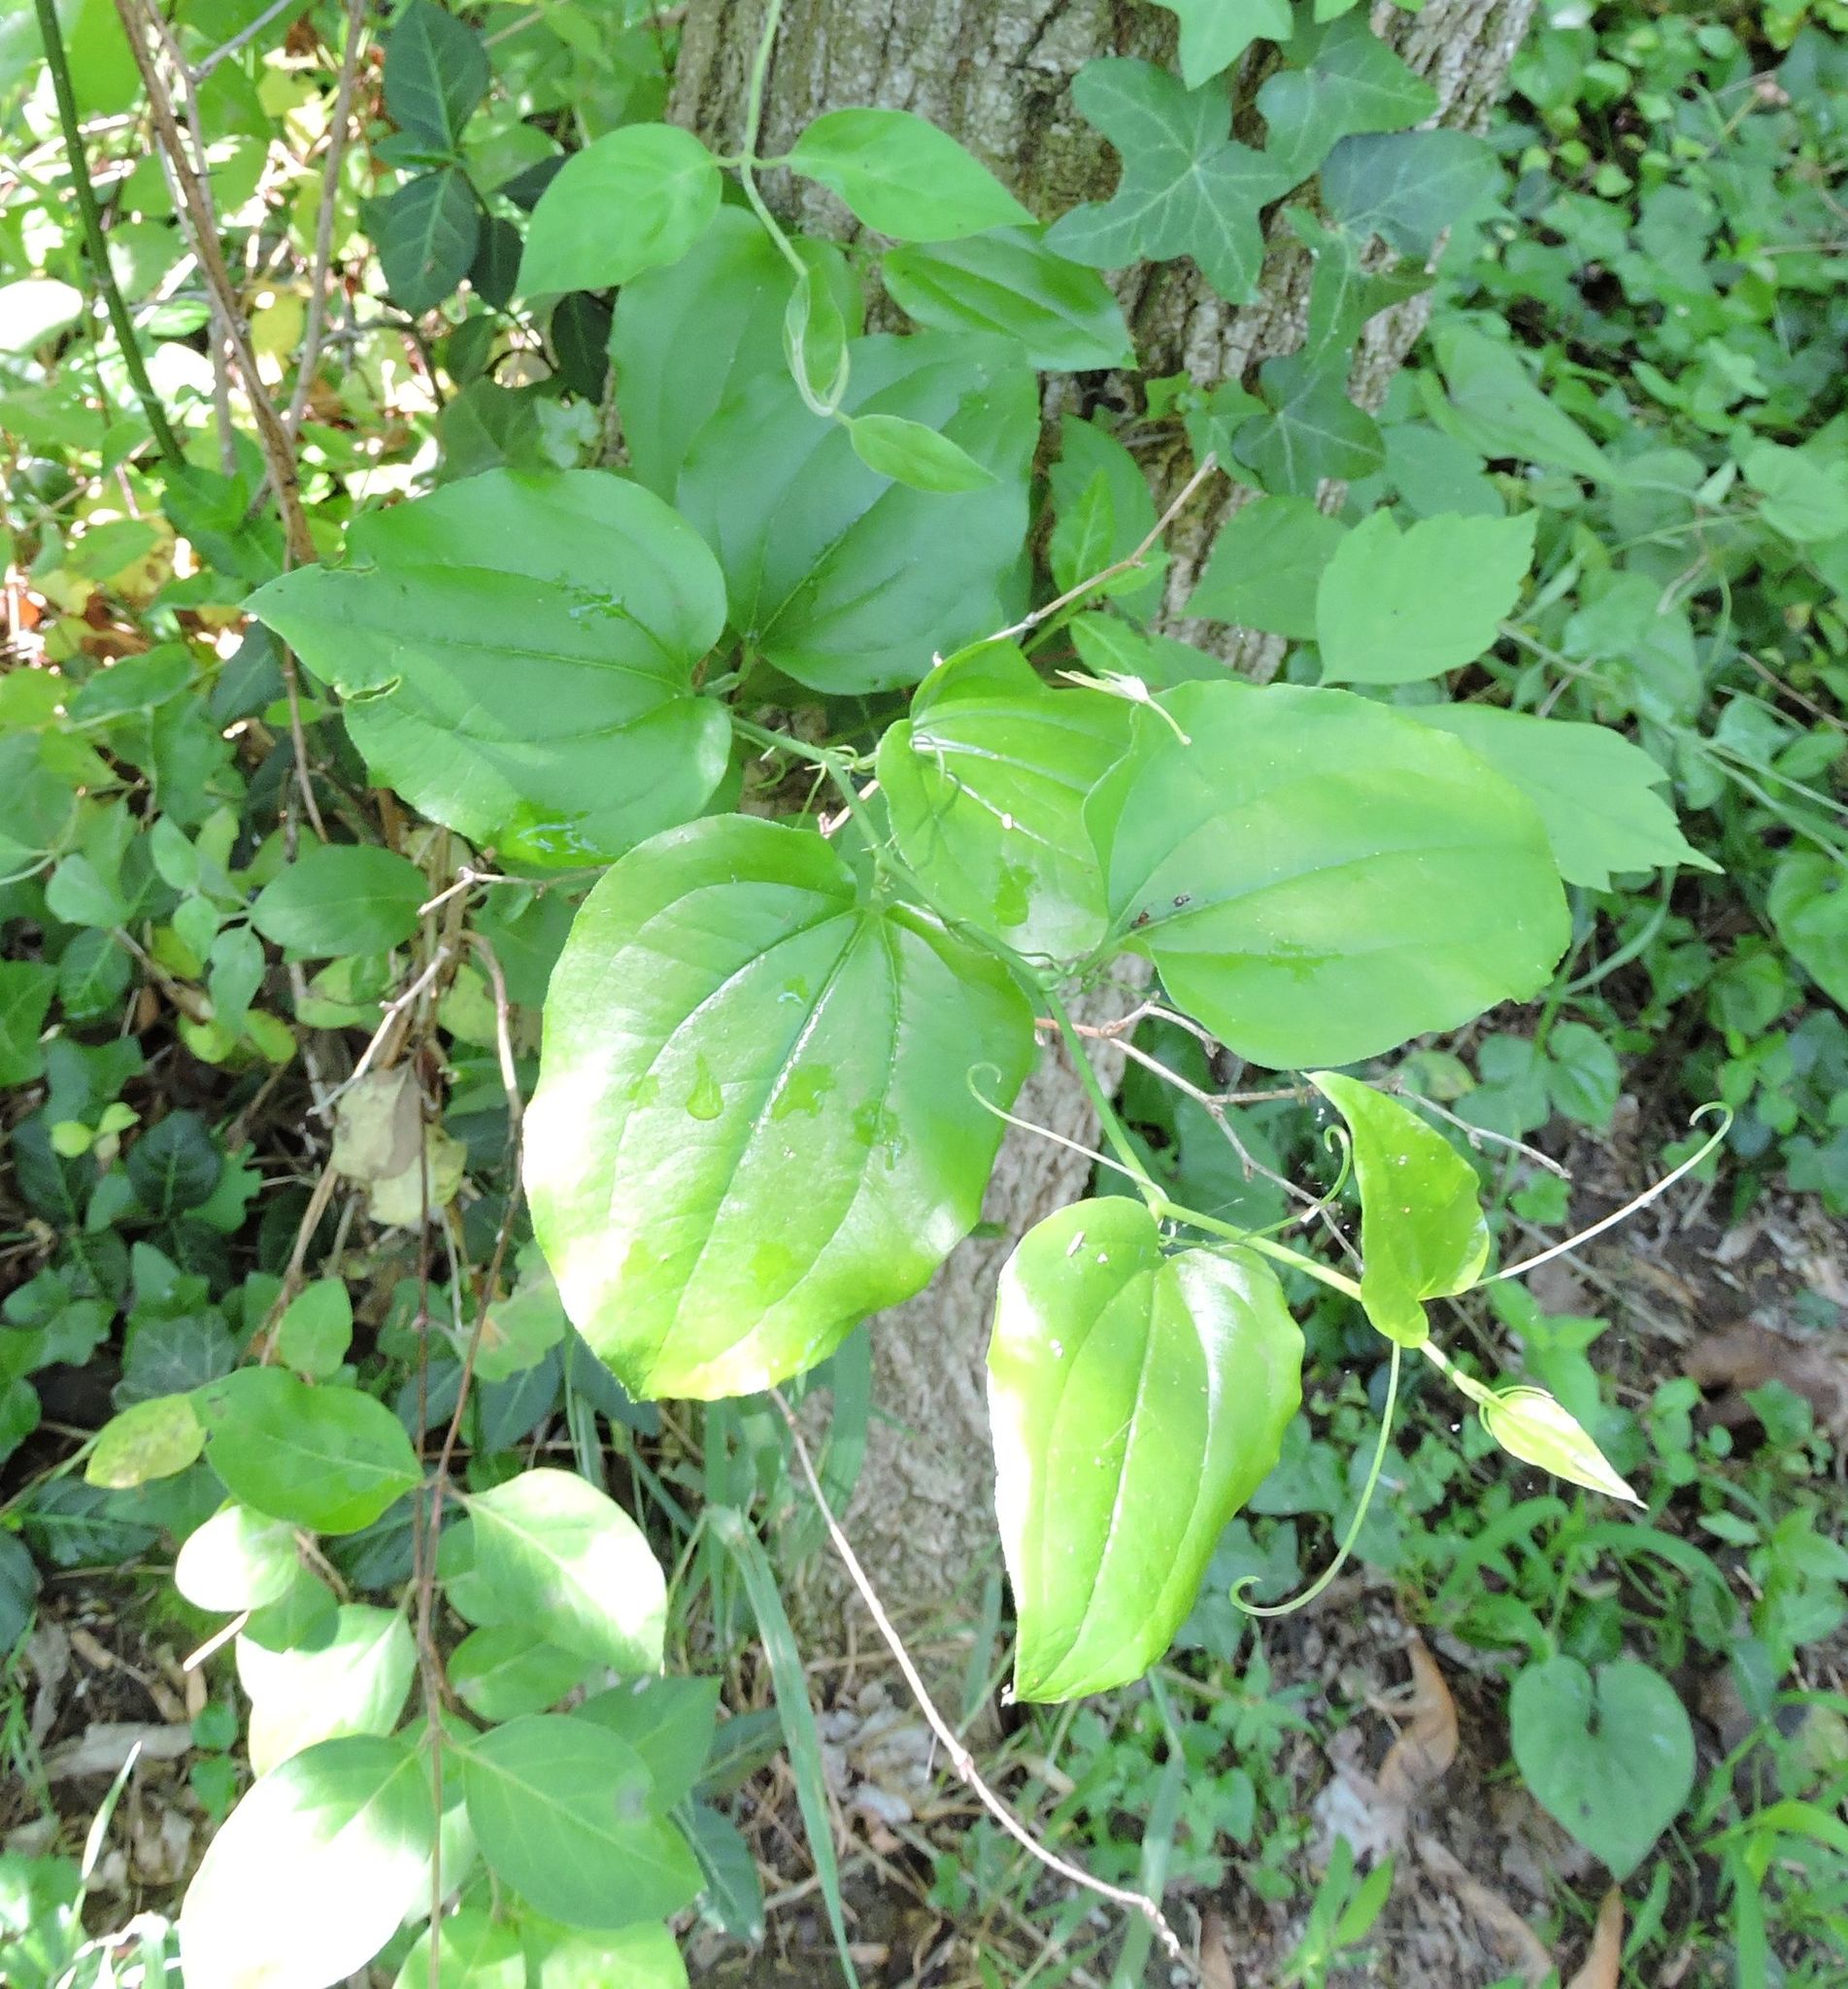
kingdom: Plantae
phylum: Tracheophyta
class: Liliopsida
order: Liliales
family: Smilacaceae
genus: Smilax
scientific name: Smilax rotundifolia
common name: Bullbriar
